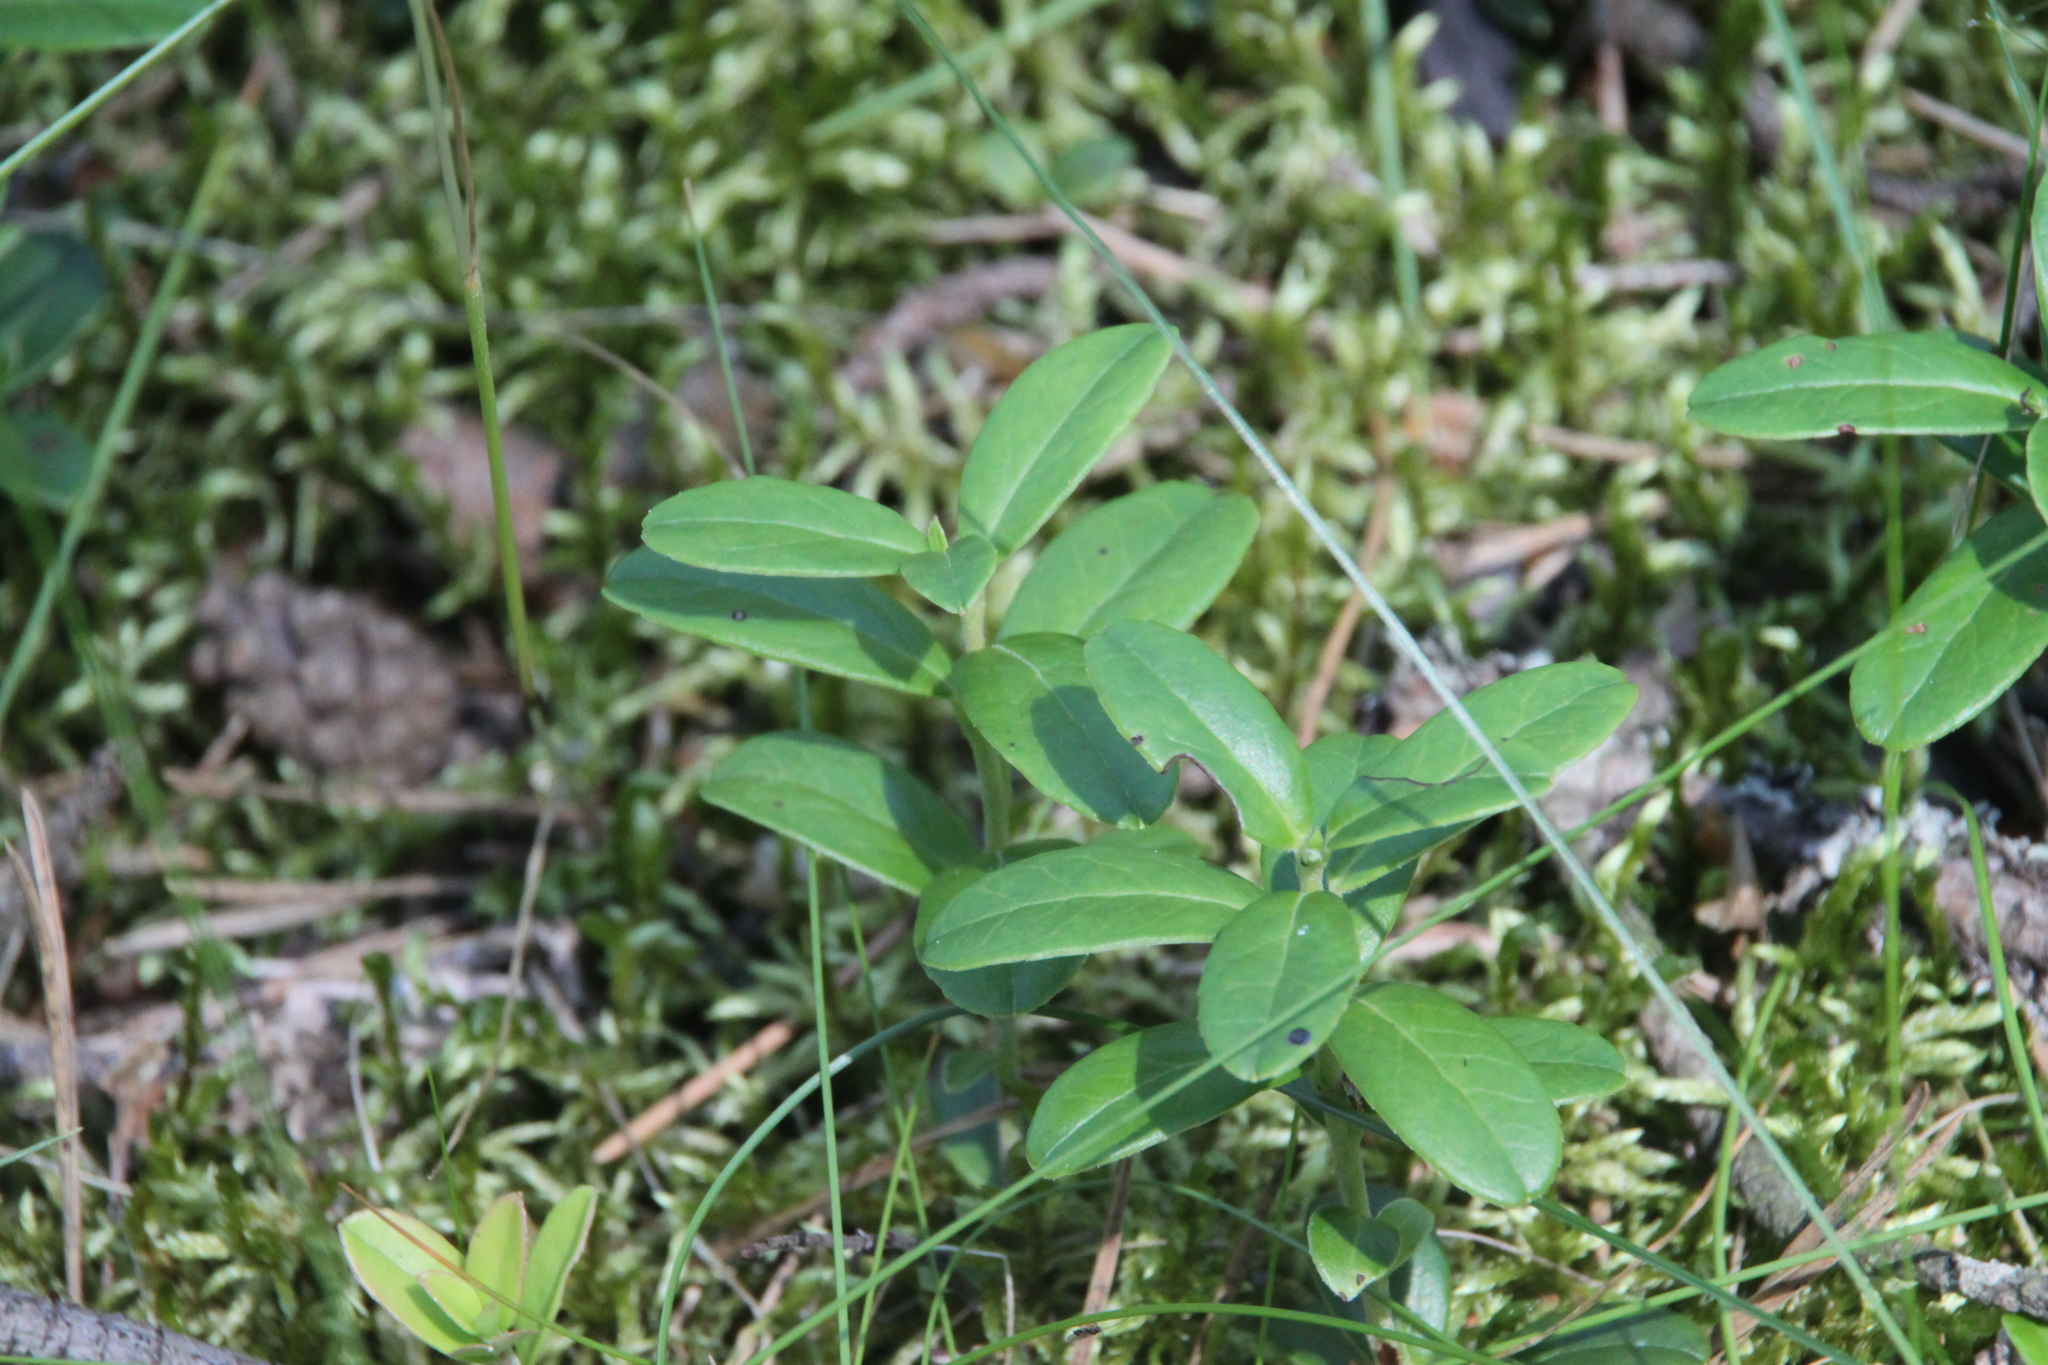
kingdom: Plantae
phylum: Tracheophyta
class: Magnoliopsida
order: Ericales
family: Ericaceae
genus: Vaccinium
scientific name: Vaccinium vitis-idaea
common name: Cowberry
